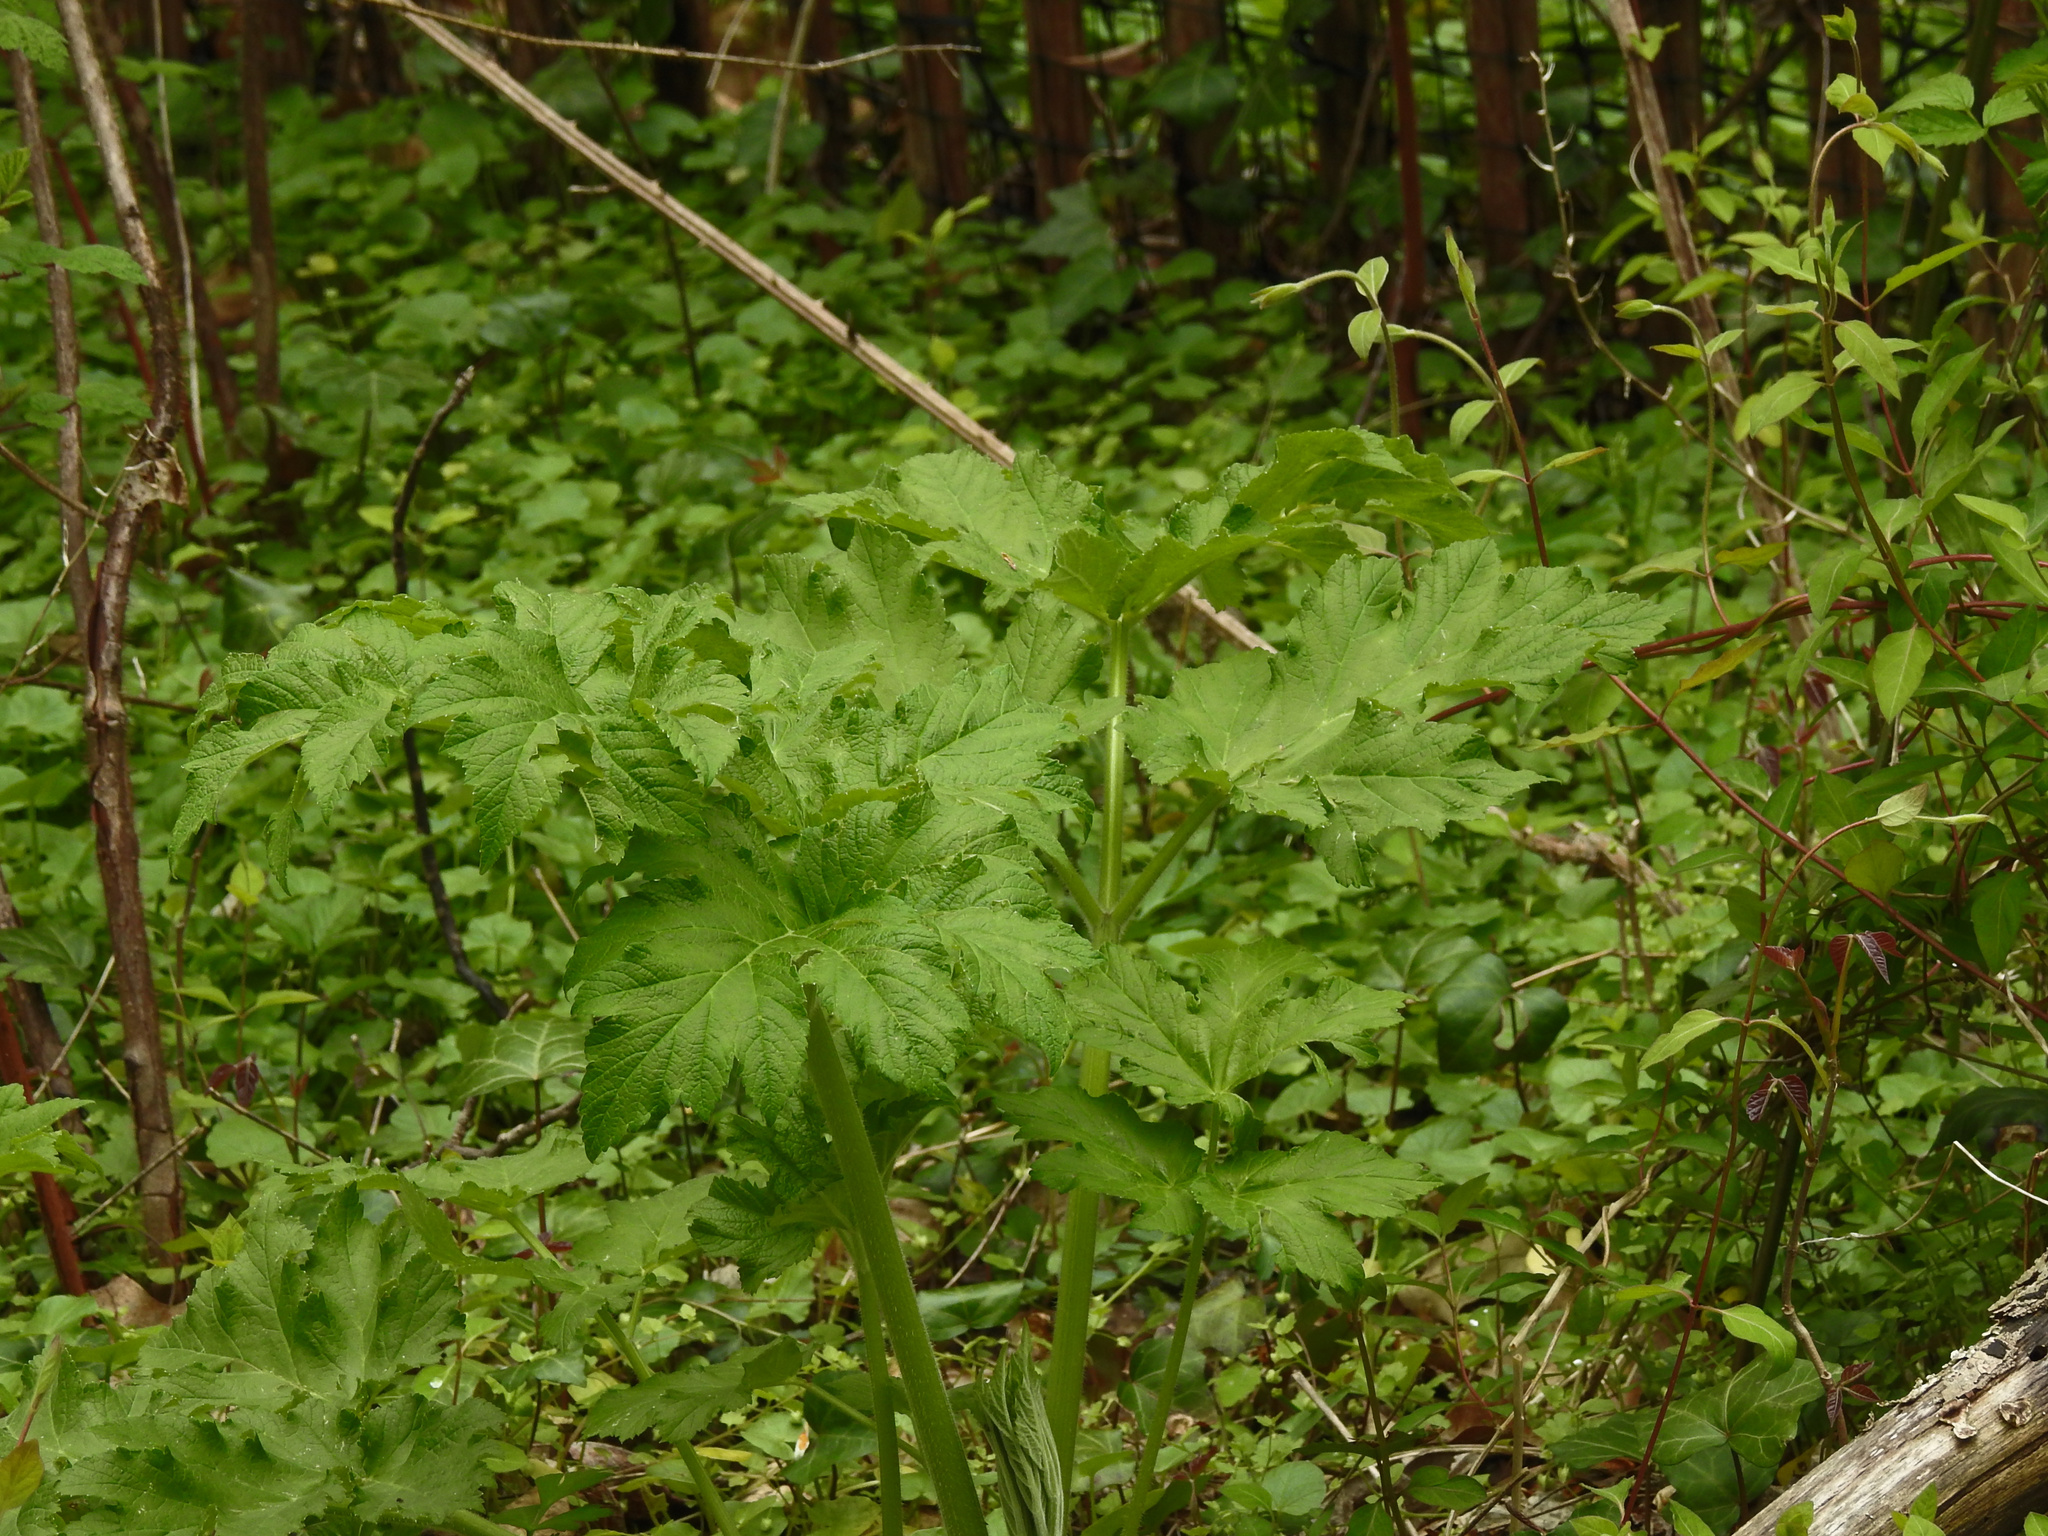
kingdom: Plantae
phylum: Tracheophyta
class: Magnoliopsida
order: Apiales
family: Apiaceae
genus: Heracleum
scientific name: Heracleum maximum
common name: American cow parsnip
